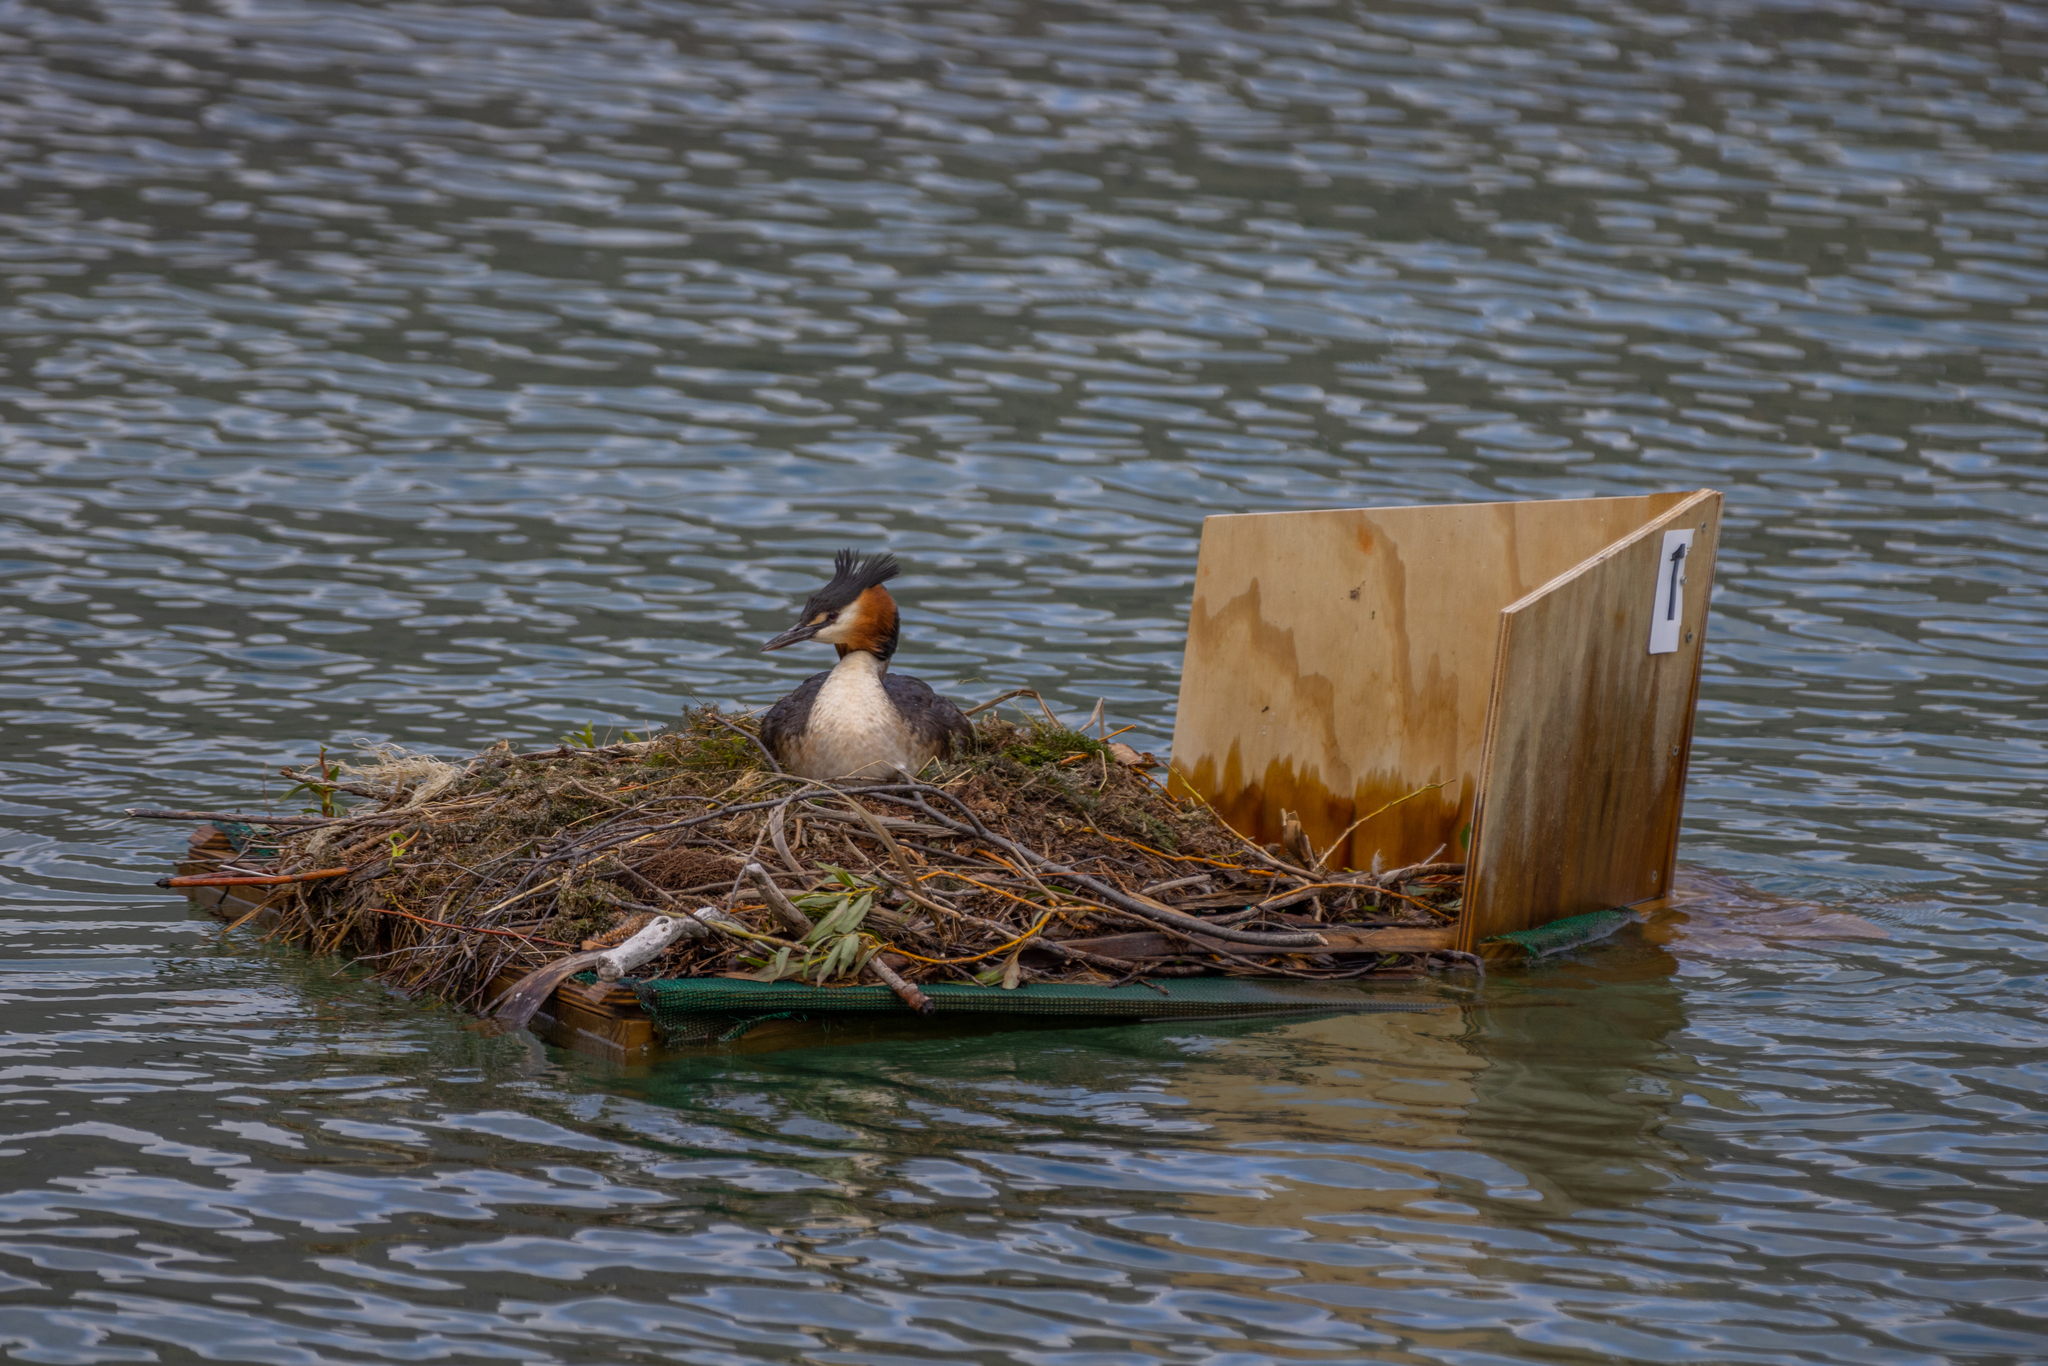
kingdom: Animalia
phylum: Chordata
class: Aves
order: Podicipediformes
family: Podicipedidae
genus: Podiceps
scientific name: Podiceps cristatus
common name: Great crested grebe
